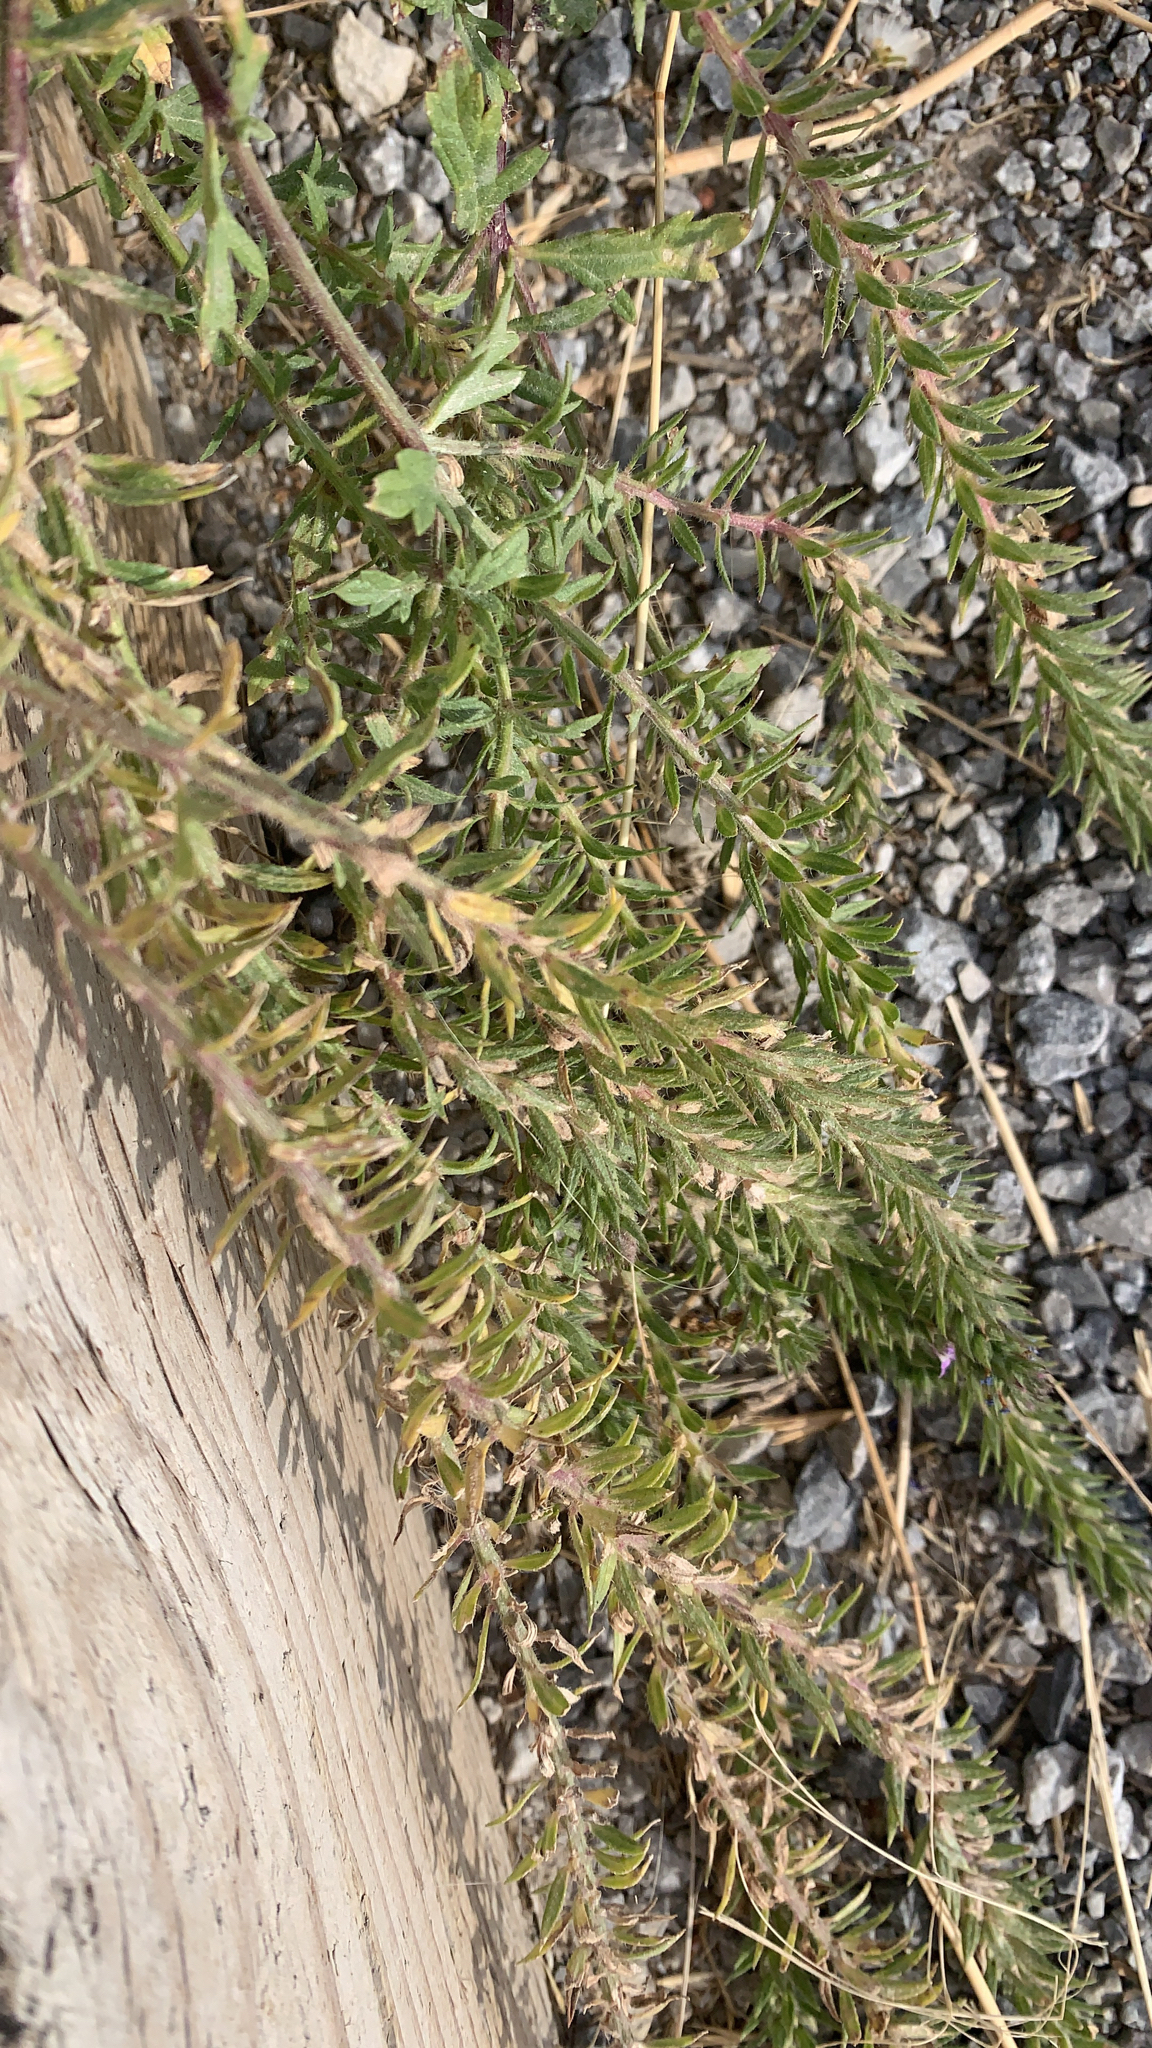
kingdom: Plantae
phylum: Tracheophyta
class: Magnoliopsida
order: Lamiales
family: Verbenaceae
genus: Verbena
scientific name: Verbena bracteata
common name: Bracted vervain
